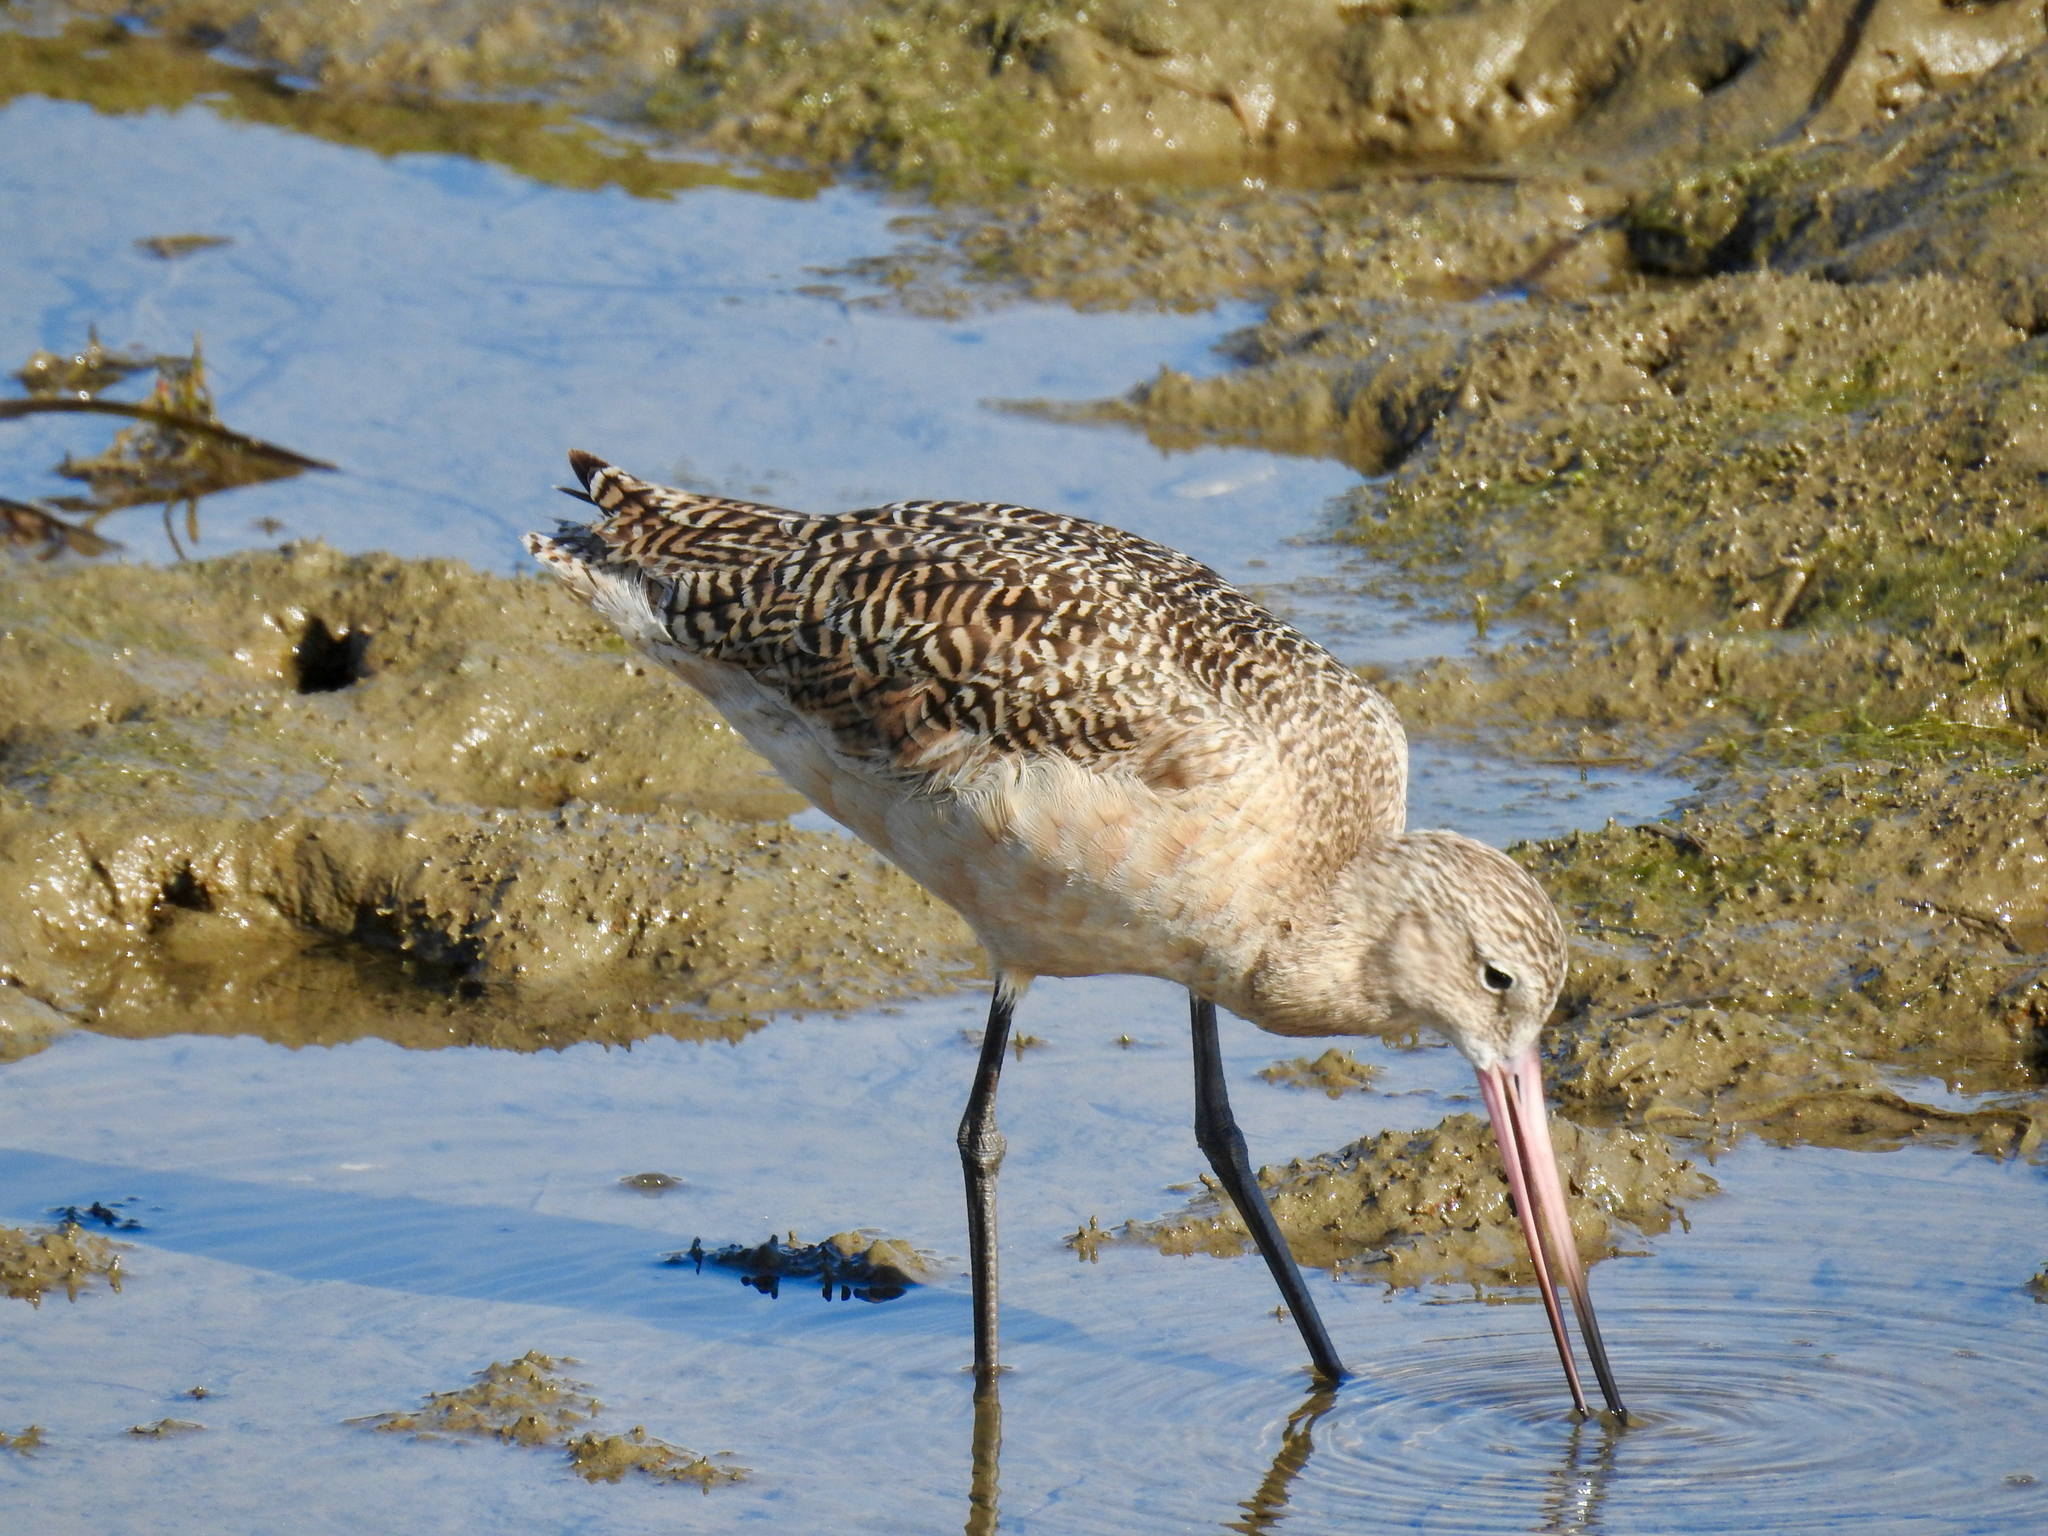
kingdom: Animalia
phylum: Chordata
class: Aves
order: Charadriiformes
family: Scolopacidae
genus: Limosa
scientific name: Limosa fedoa
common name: Marbled godwit
